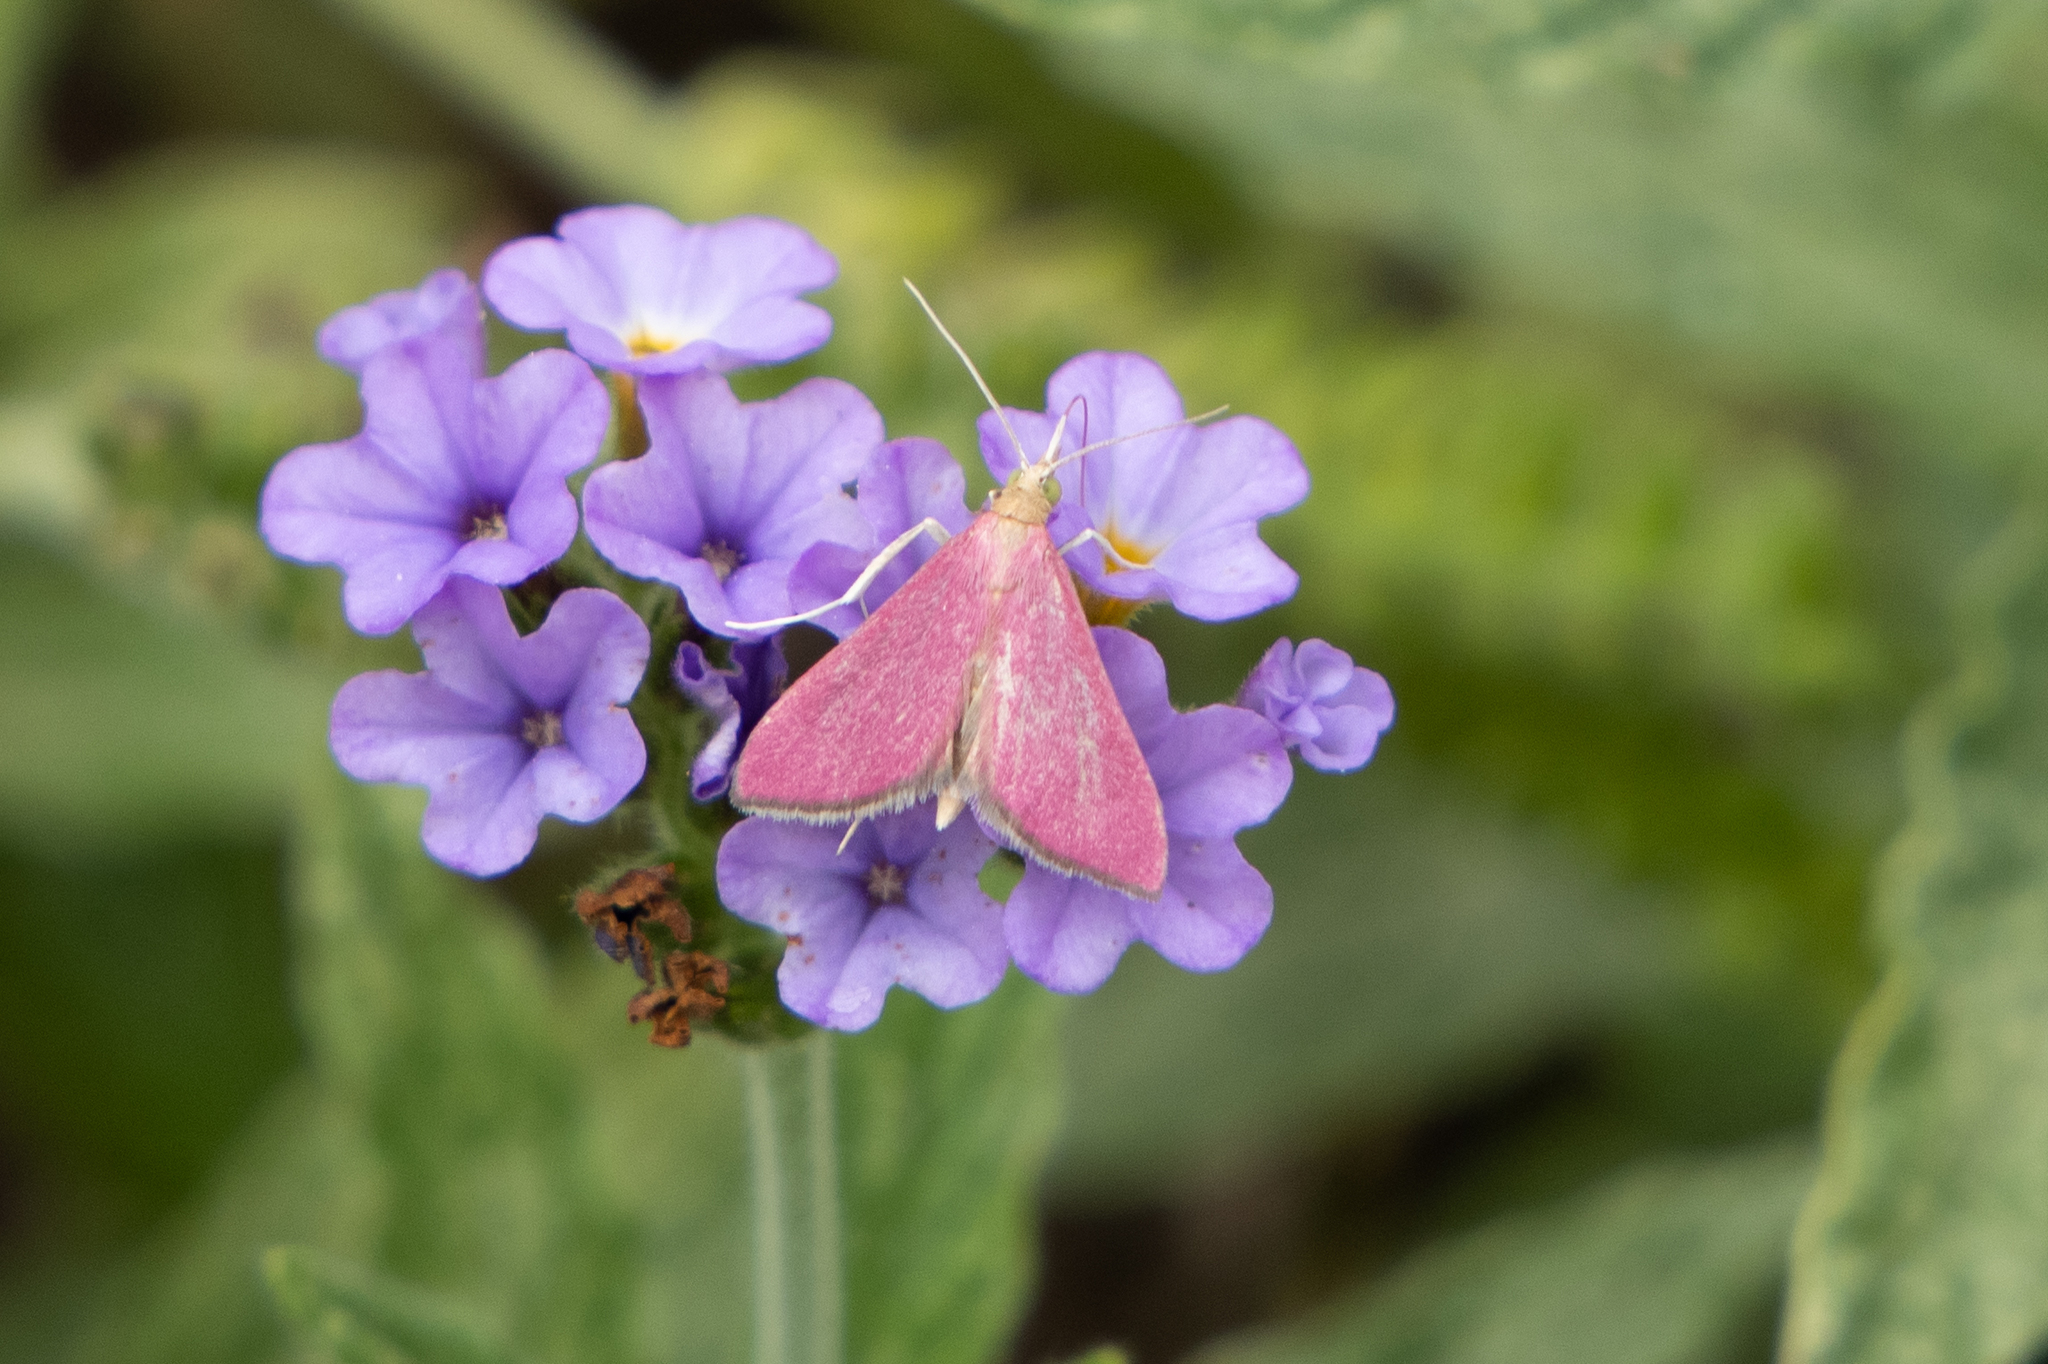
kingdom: Animalia
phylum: Arthropoda
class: Insecta
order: Lepidoptera
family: Crambidae
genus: Pyrausta
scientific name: Pyrausta inornatalis
